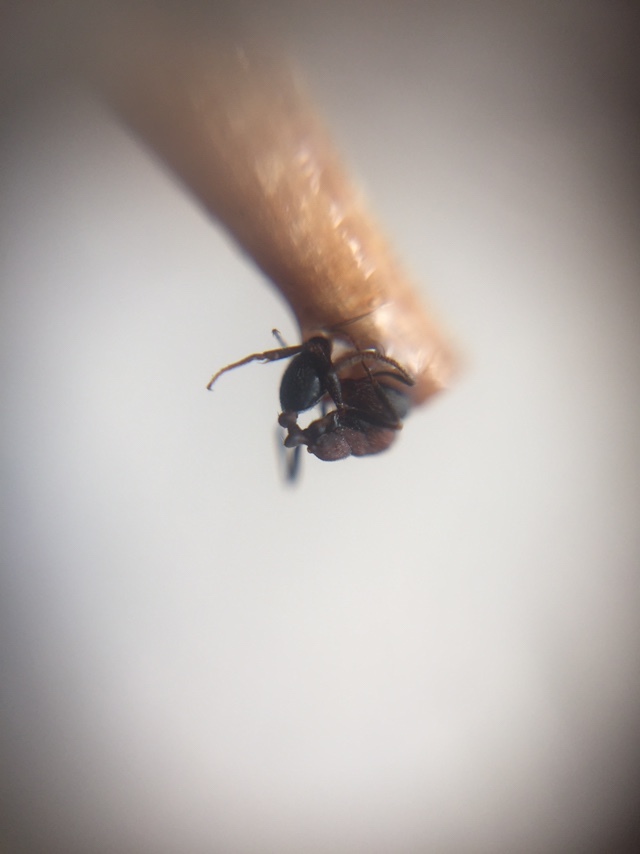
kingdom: Animalia
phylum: Arthropoda
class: Insecta
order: Hymenoptera
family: Formicidae
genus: Monomorium
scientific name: Monomorium indicum
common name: Ant
